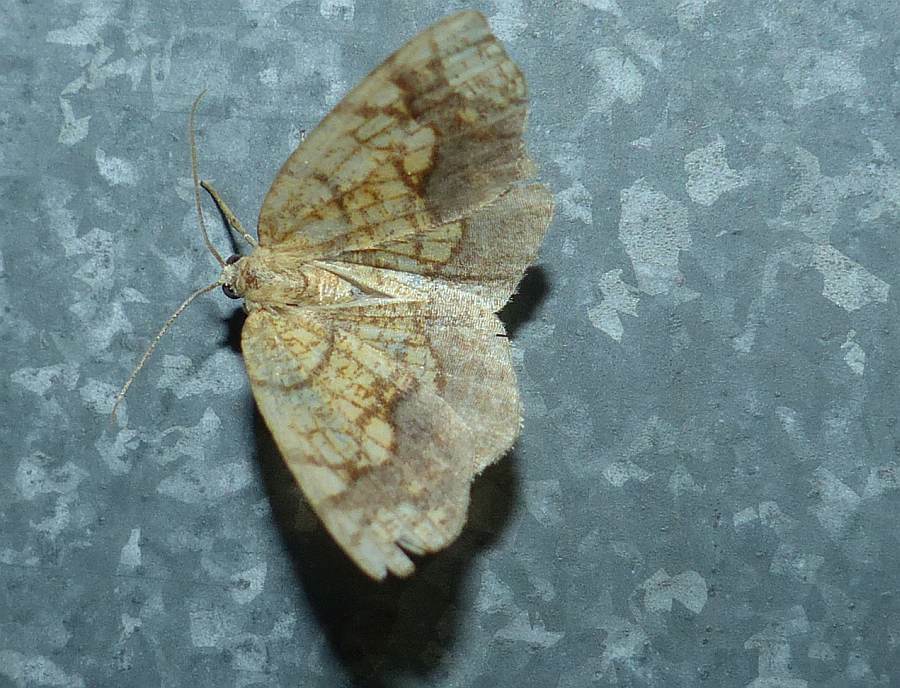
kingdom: Animalia
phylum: Arthropoda
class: Insecta
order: Lepidoptera
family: Geometridae
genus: Nematocampa
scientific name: Nematocampa resistaria
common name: Horned spanworm moth
